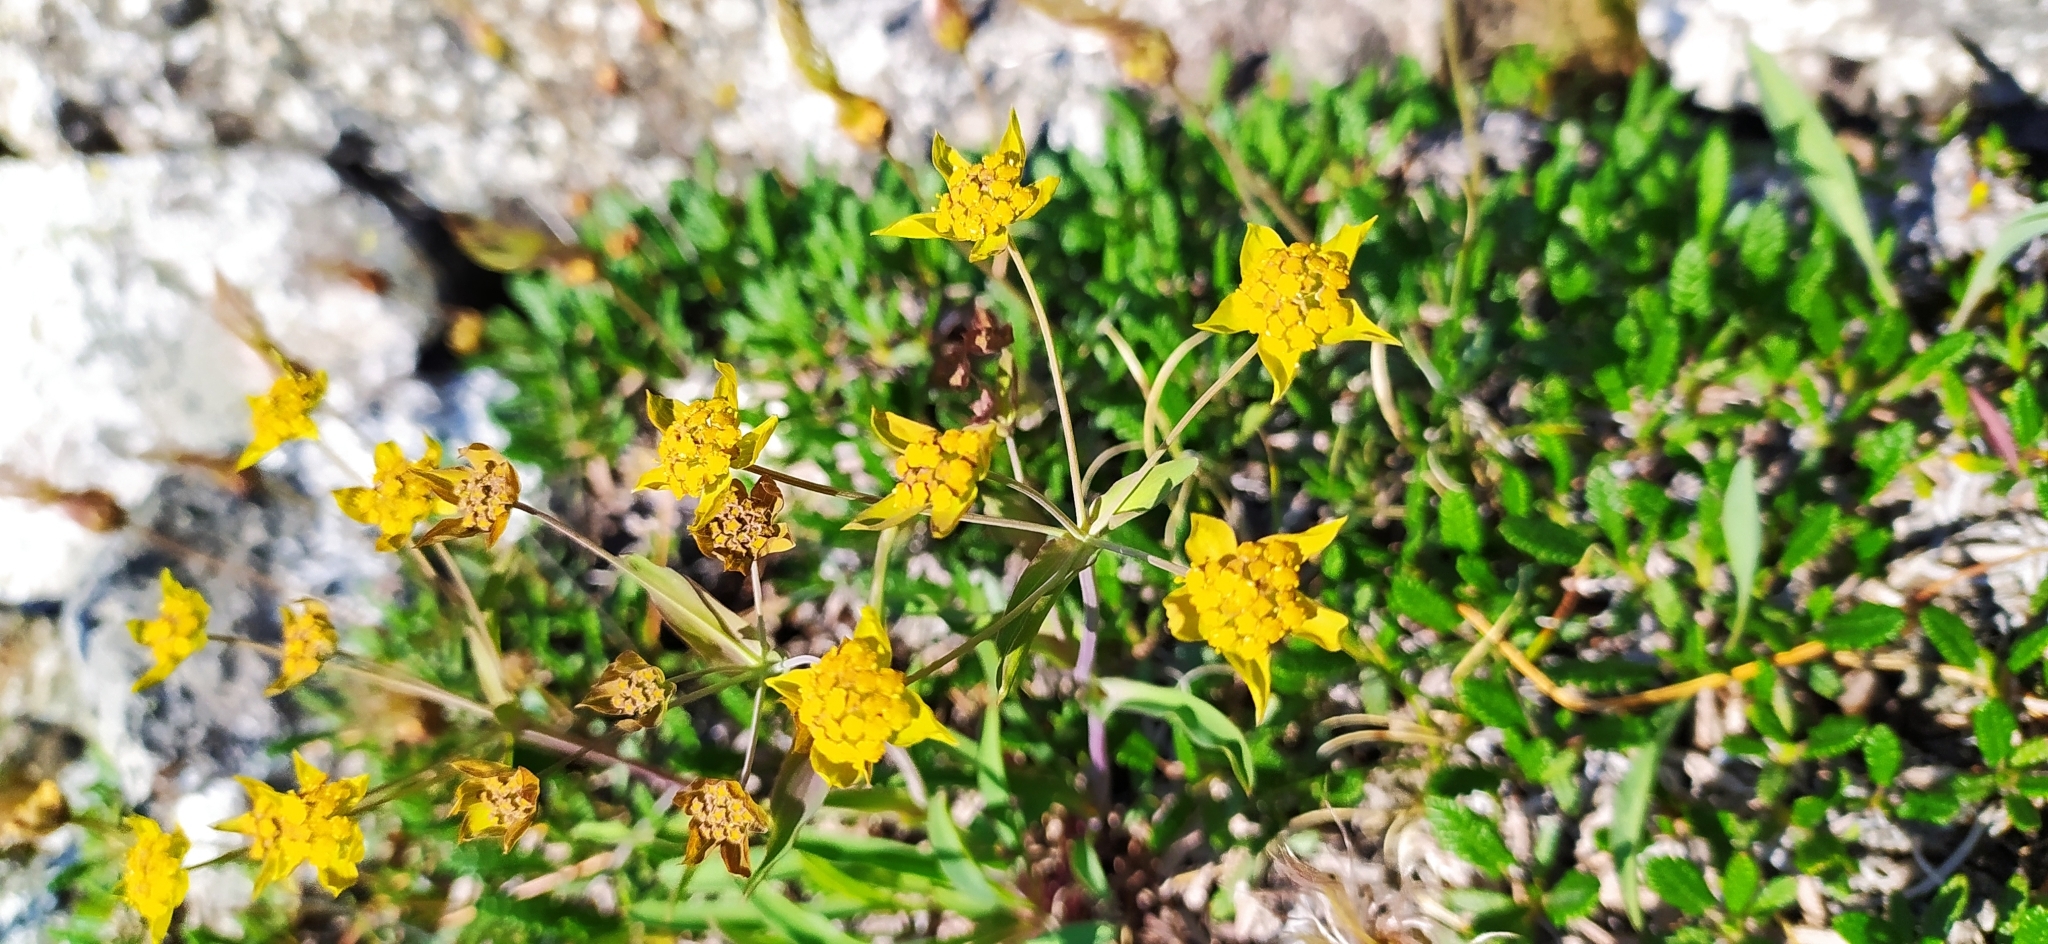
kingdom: Plantae
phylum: Tracheophyta
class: Magnoliopsida
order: Apiales
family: Apiaceae
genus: Bupleurum
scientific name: Bupleurum multinerve
